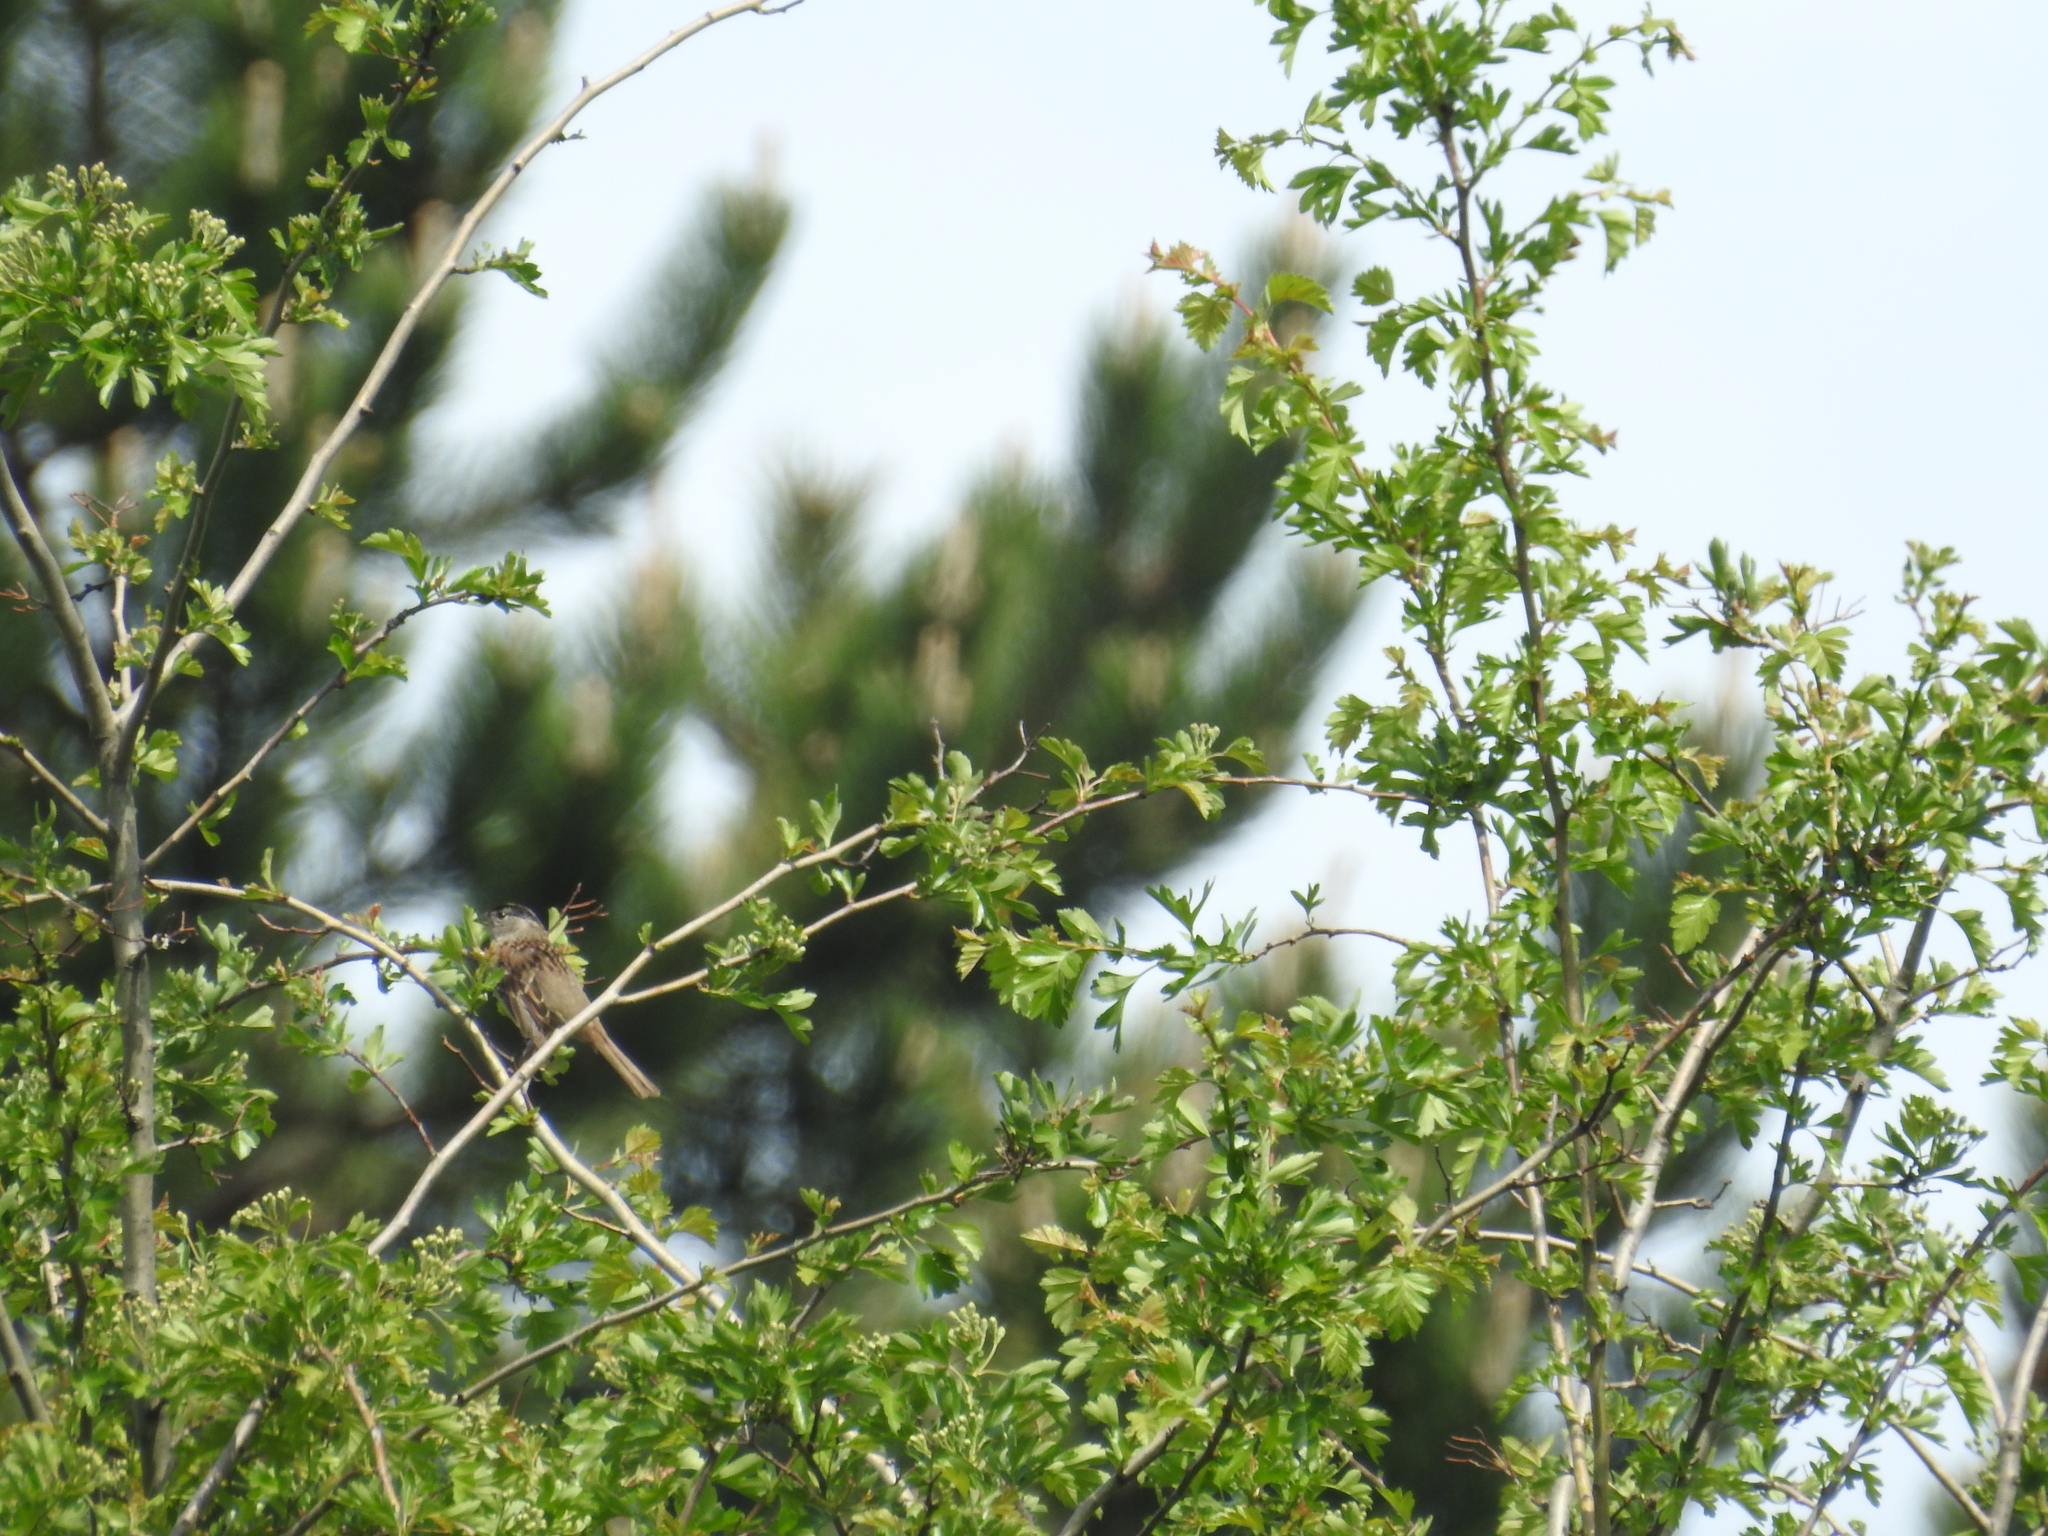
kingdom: Animalia
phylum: Chordata
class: Aves
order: Passeriformes
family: Passerellidae
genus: Zonotrichia
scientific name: Zonotrichia atricapilla
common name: Golden-crowned sparrow
